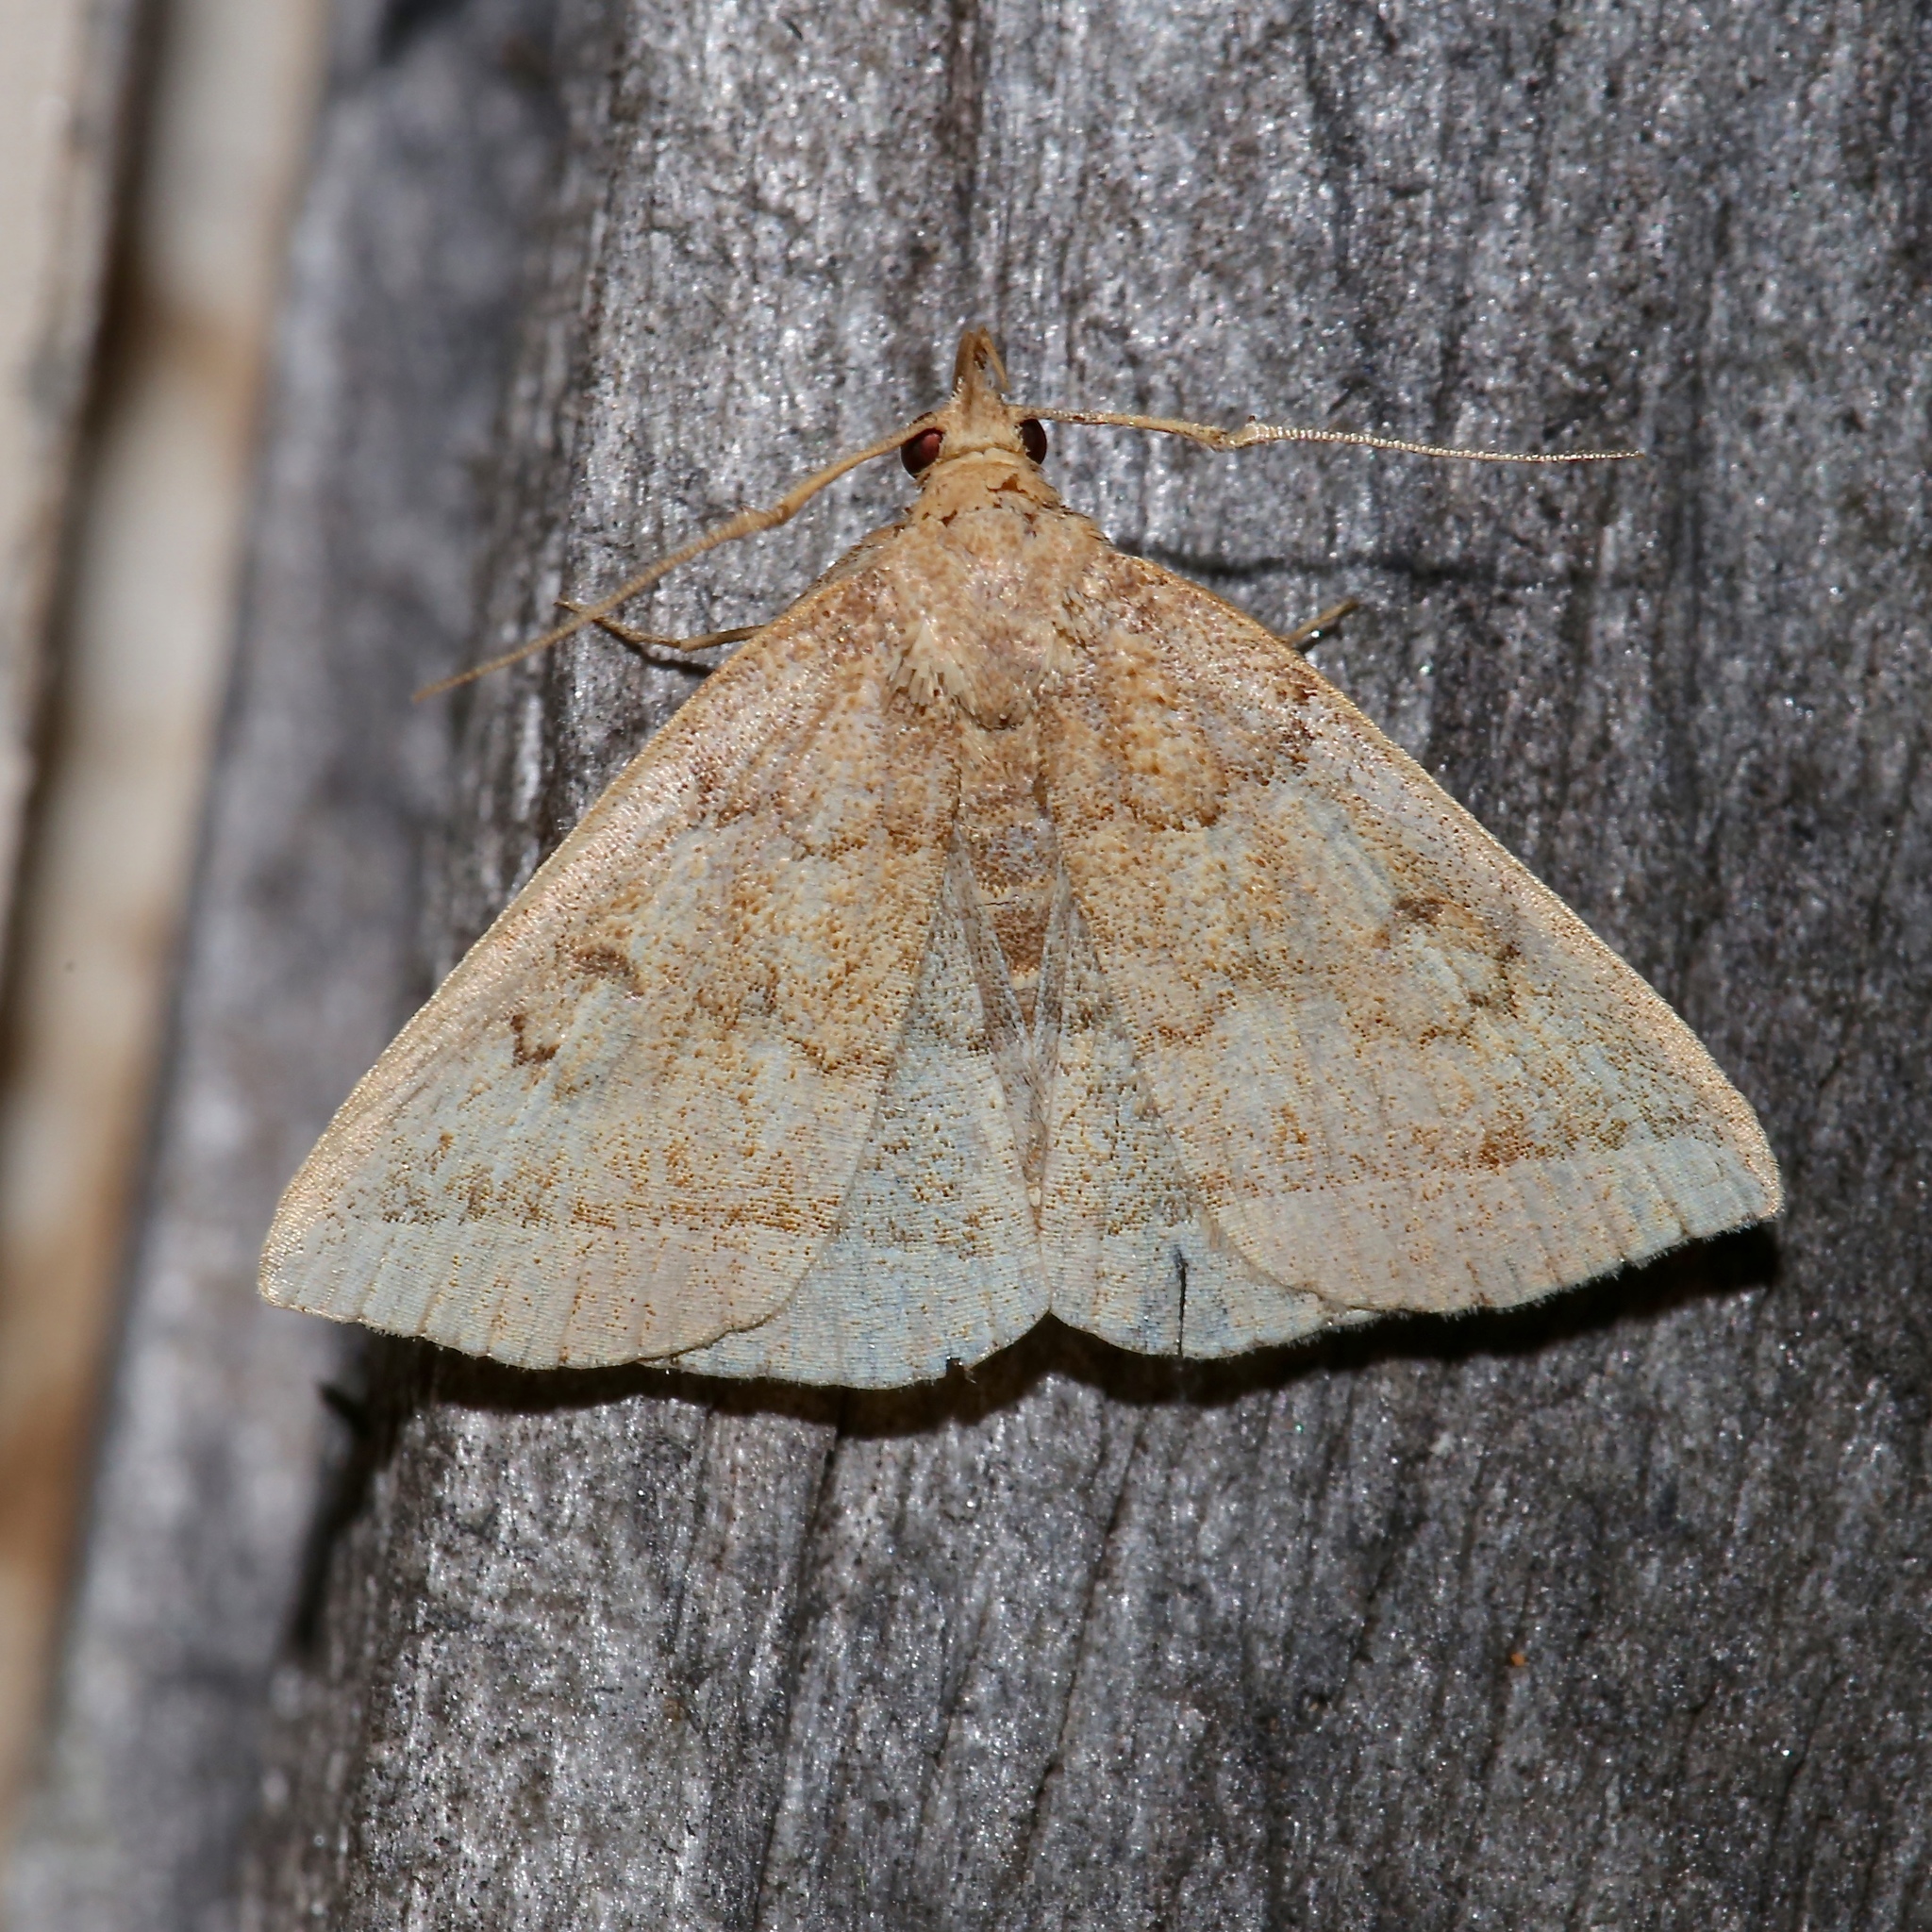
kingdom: Animalia
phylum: Arthropoda
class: Insecta
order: Lepidoptera
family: Erebidae
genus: Zanclognatha
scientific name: Zanclognatha jacchusalis
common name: Yellowish zanclognatha
